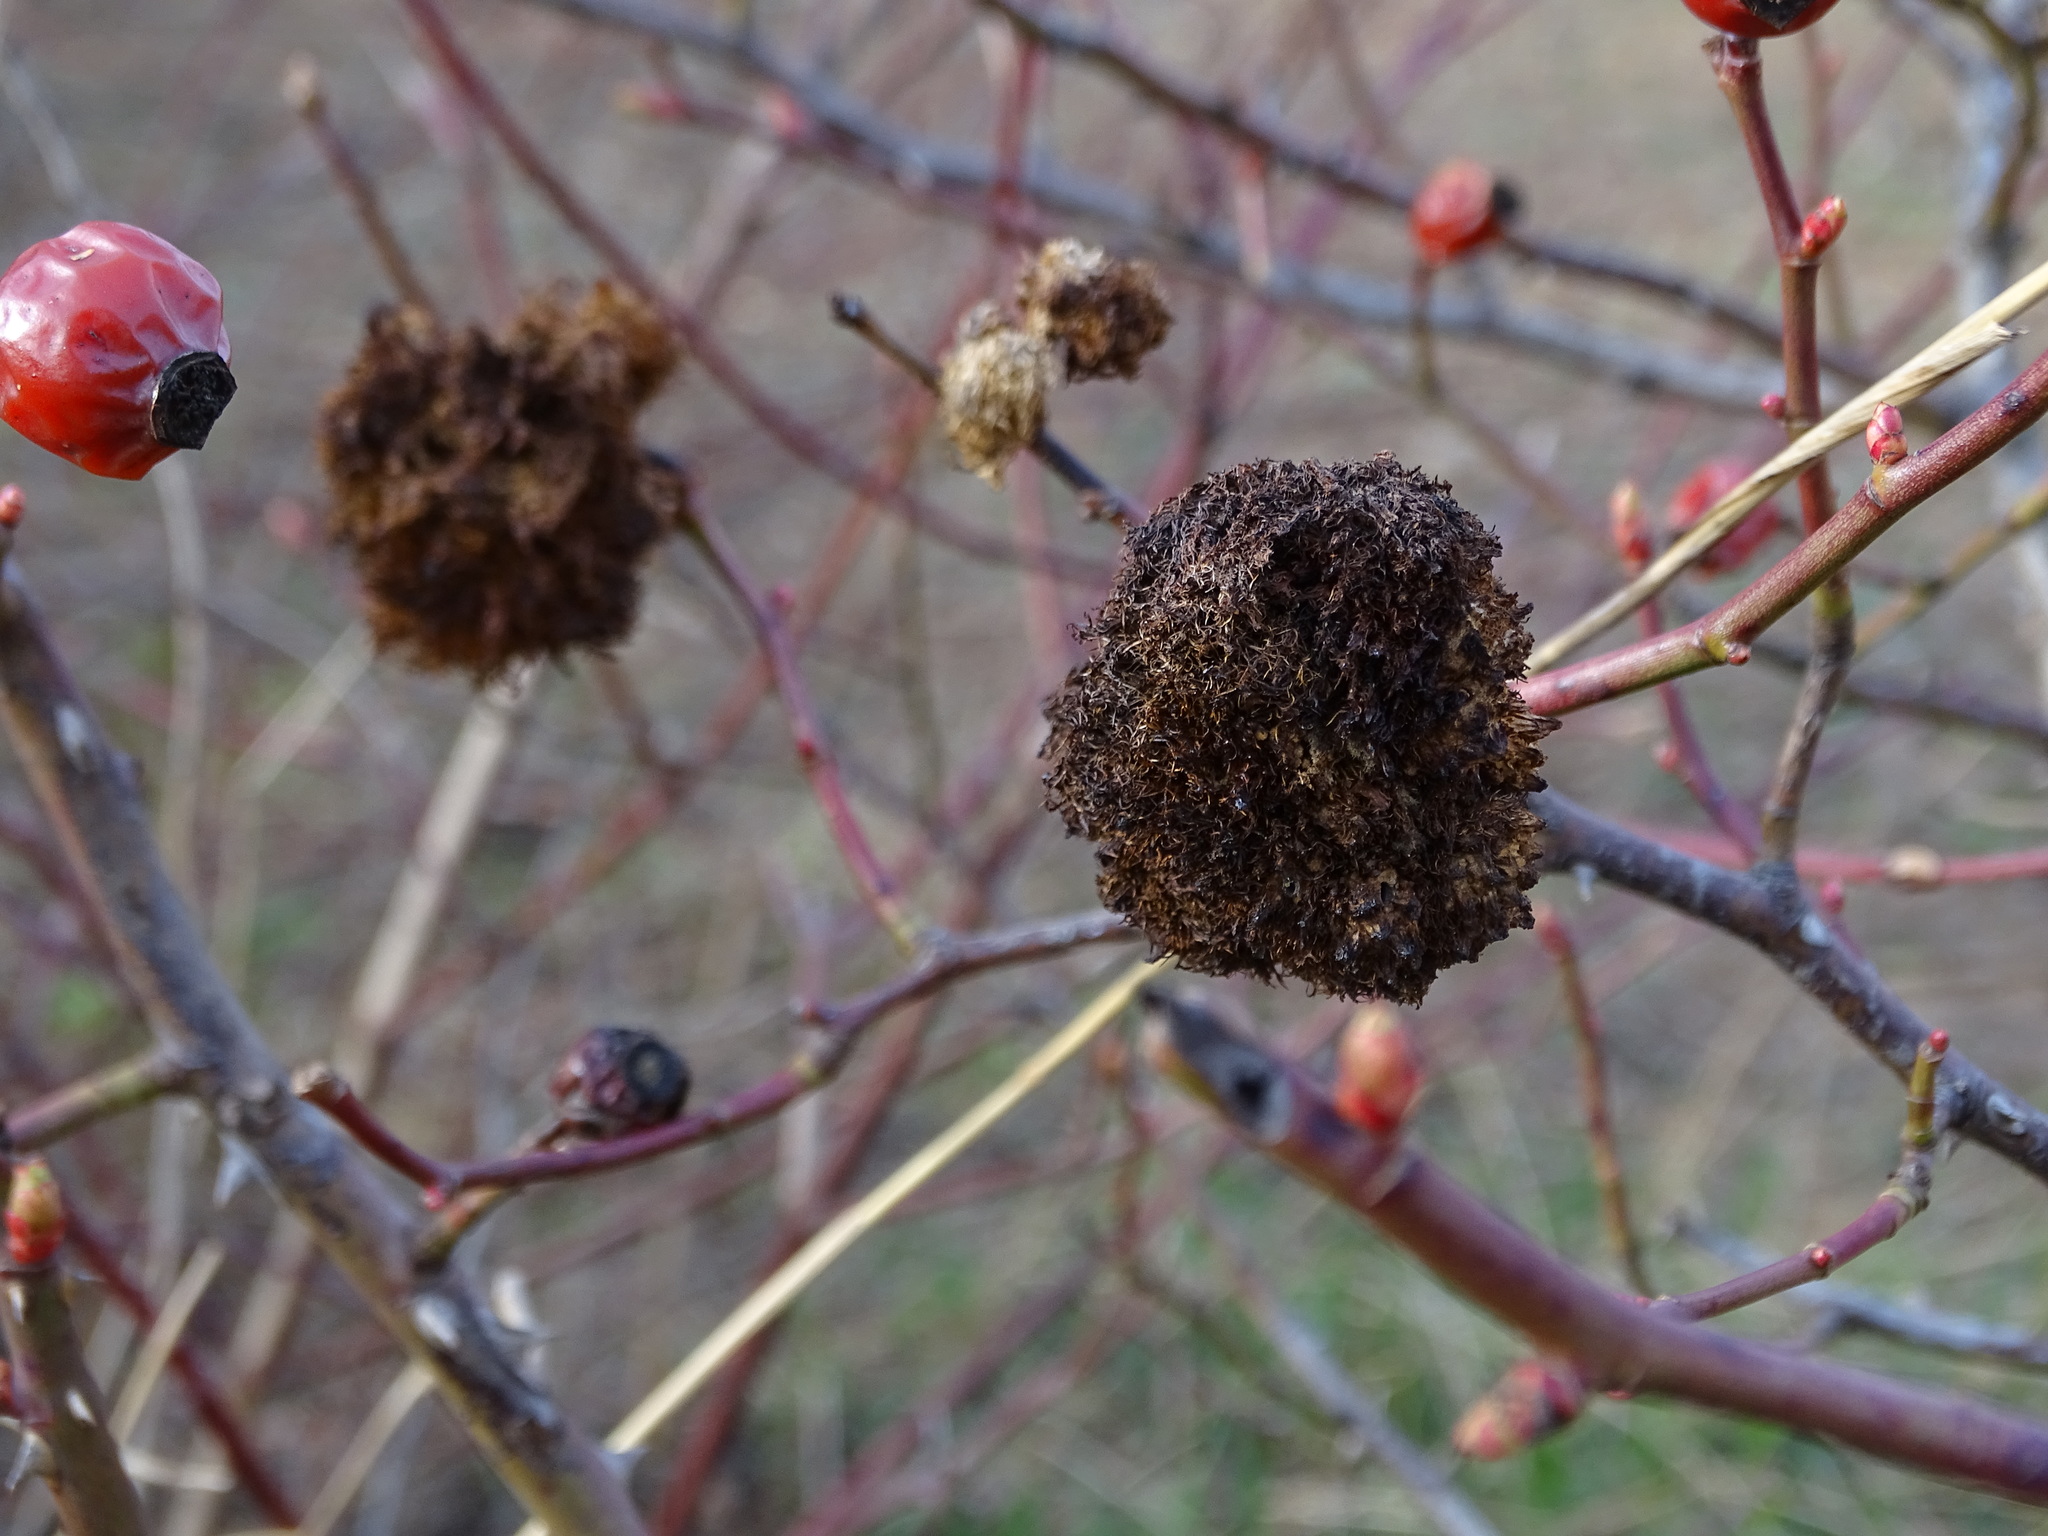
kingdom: Animalia
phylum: Arthropoda
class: Insecta
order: Hymenoptera
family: Cynipidae
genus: Diplolepis
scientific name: Diplolepis rosae
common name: Bedeguar gall
